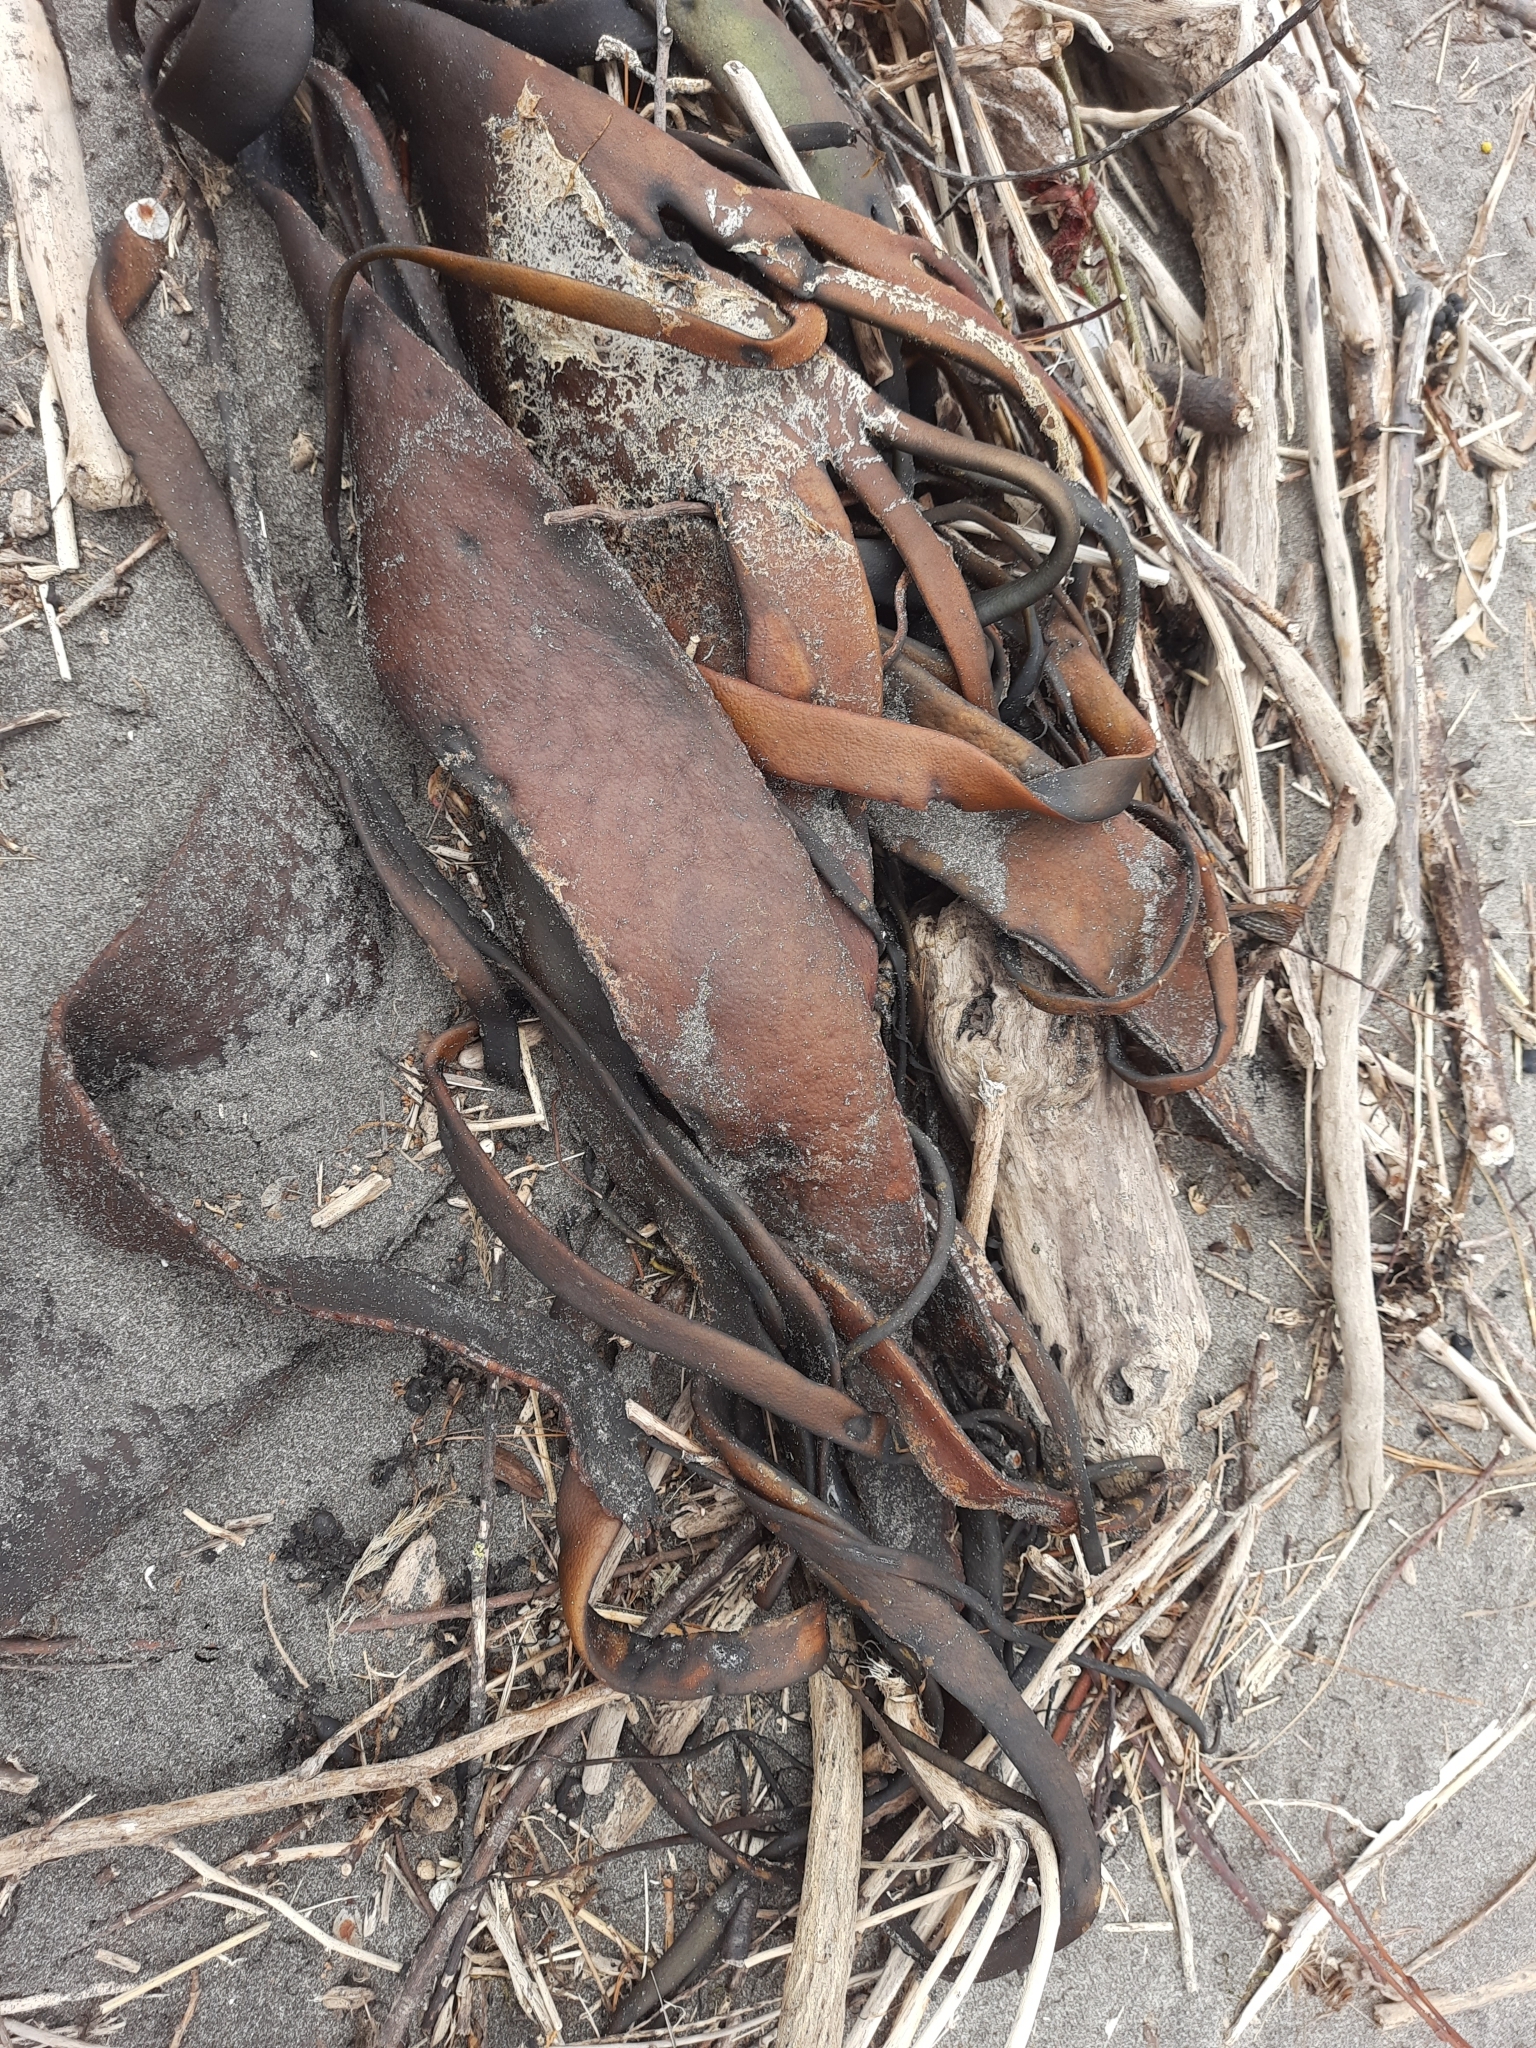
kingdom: Chromista
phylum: Ochrophyta
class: Phaeophyceae
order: Fucales
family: Durvillaeaceae
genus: Durvillaea
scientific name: Durvillaea antarctica
